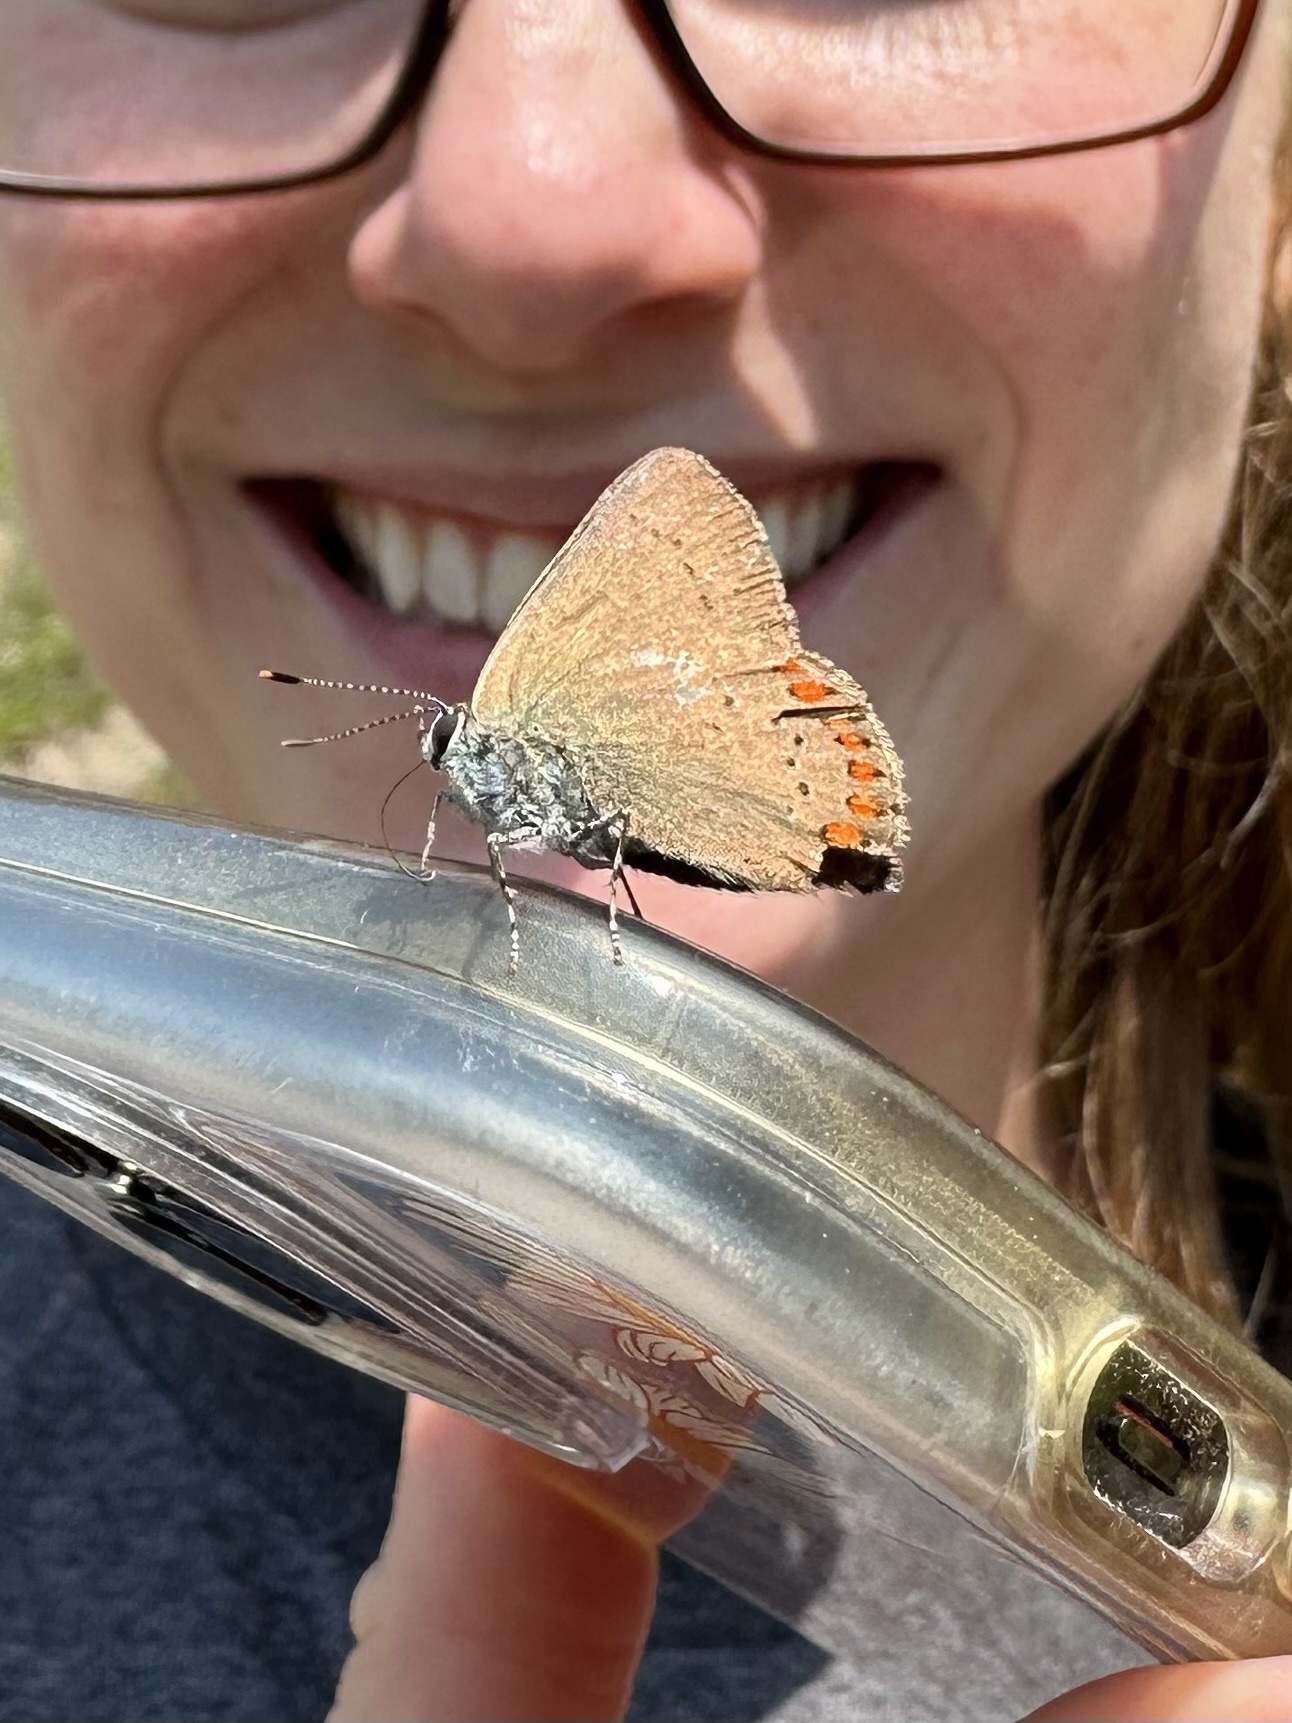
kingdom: Animalia
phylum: Arthropoda
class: Insecta
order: Lepidoptera
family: Lycaenidae
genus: Harkenclenus
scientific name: Harkenclenus titus
